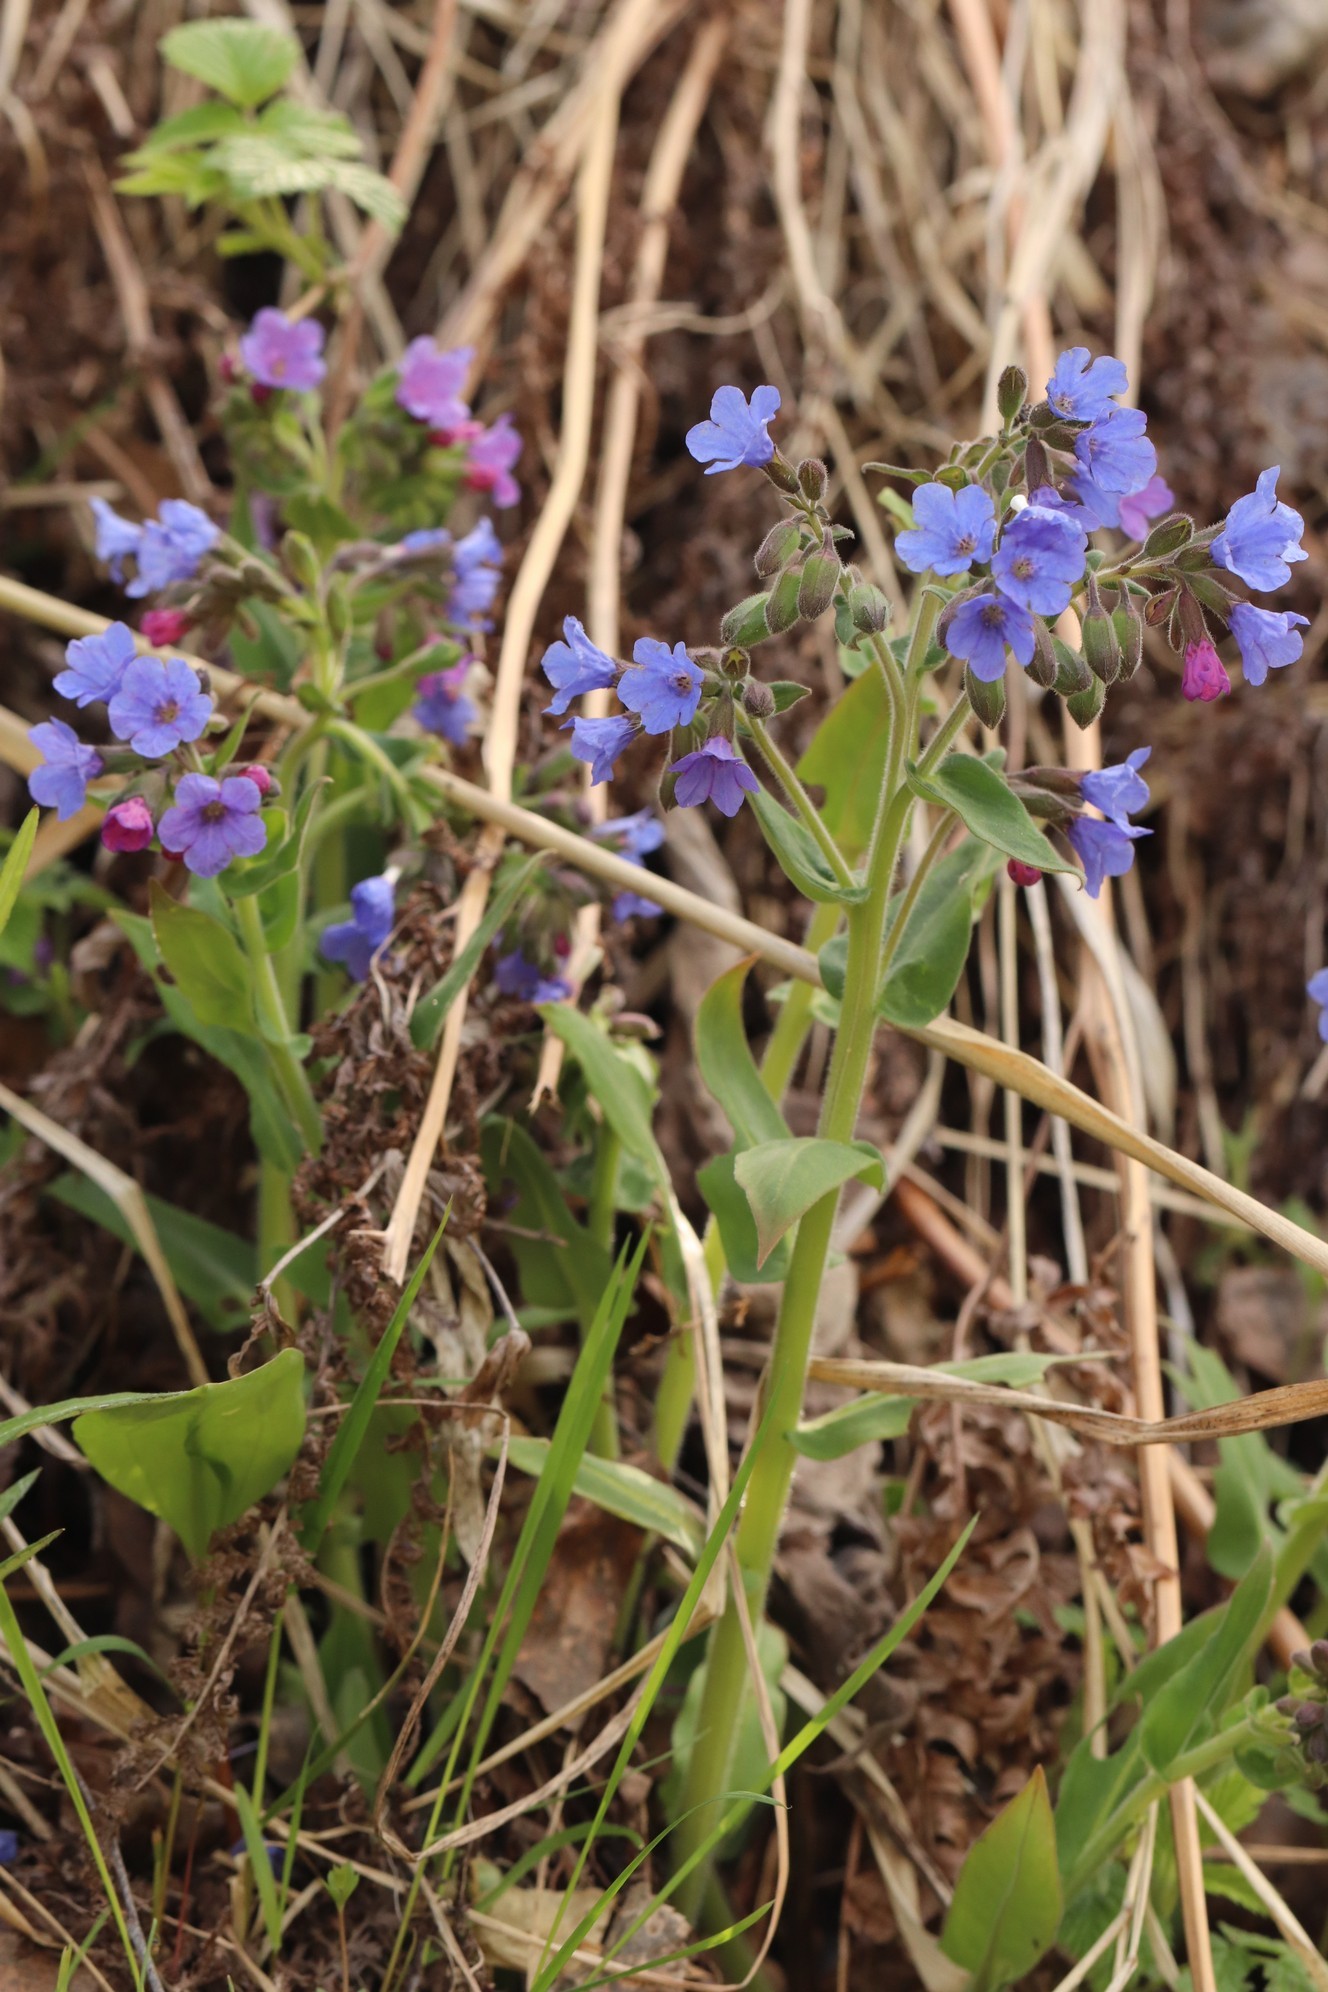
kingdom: Plantae
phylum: Tracheophyta
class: Magnoliopsida
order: Boraginales
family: Boraginaceae
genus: Pulmonaria
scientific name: Pulmonaria mollis
